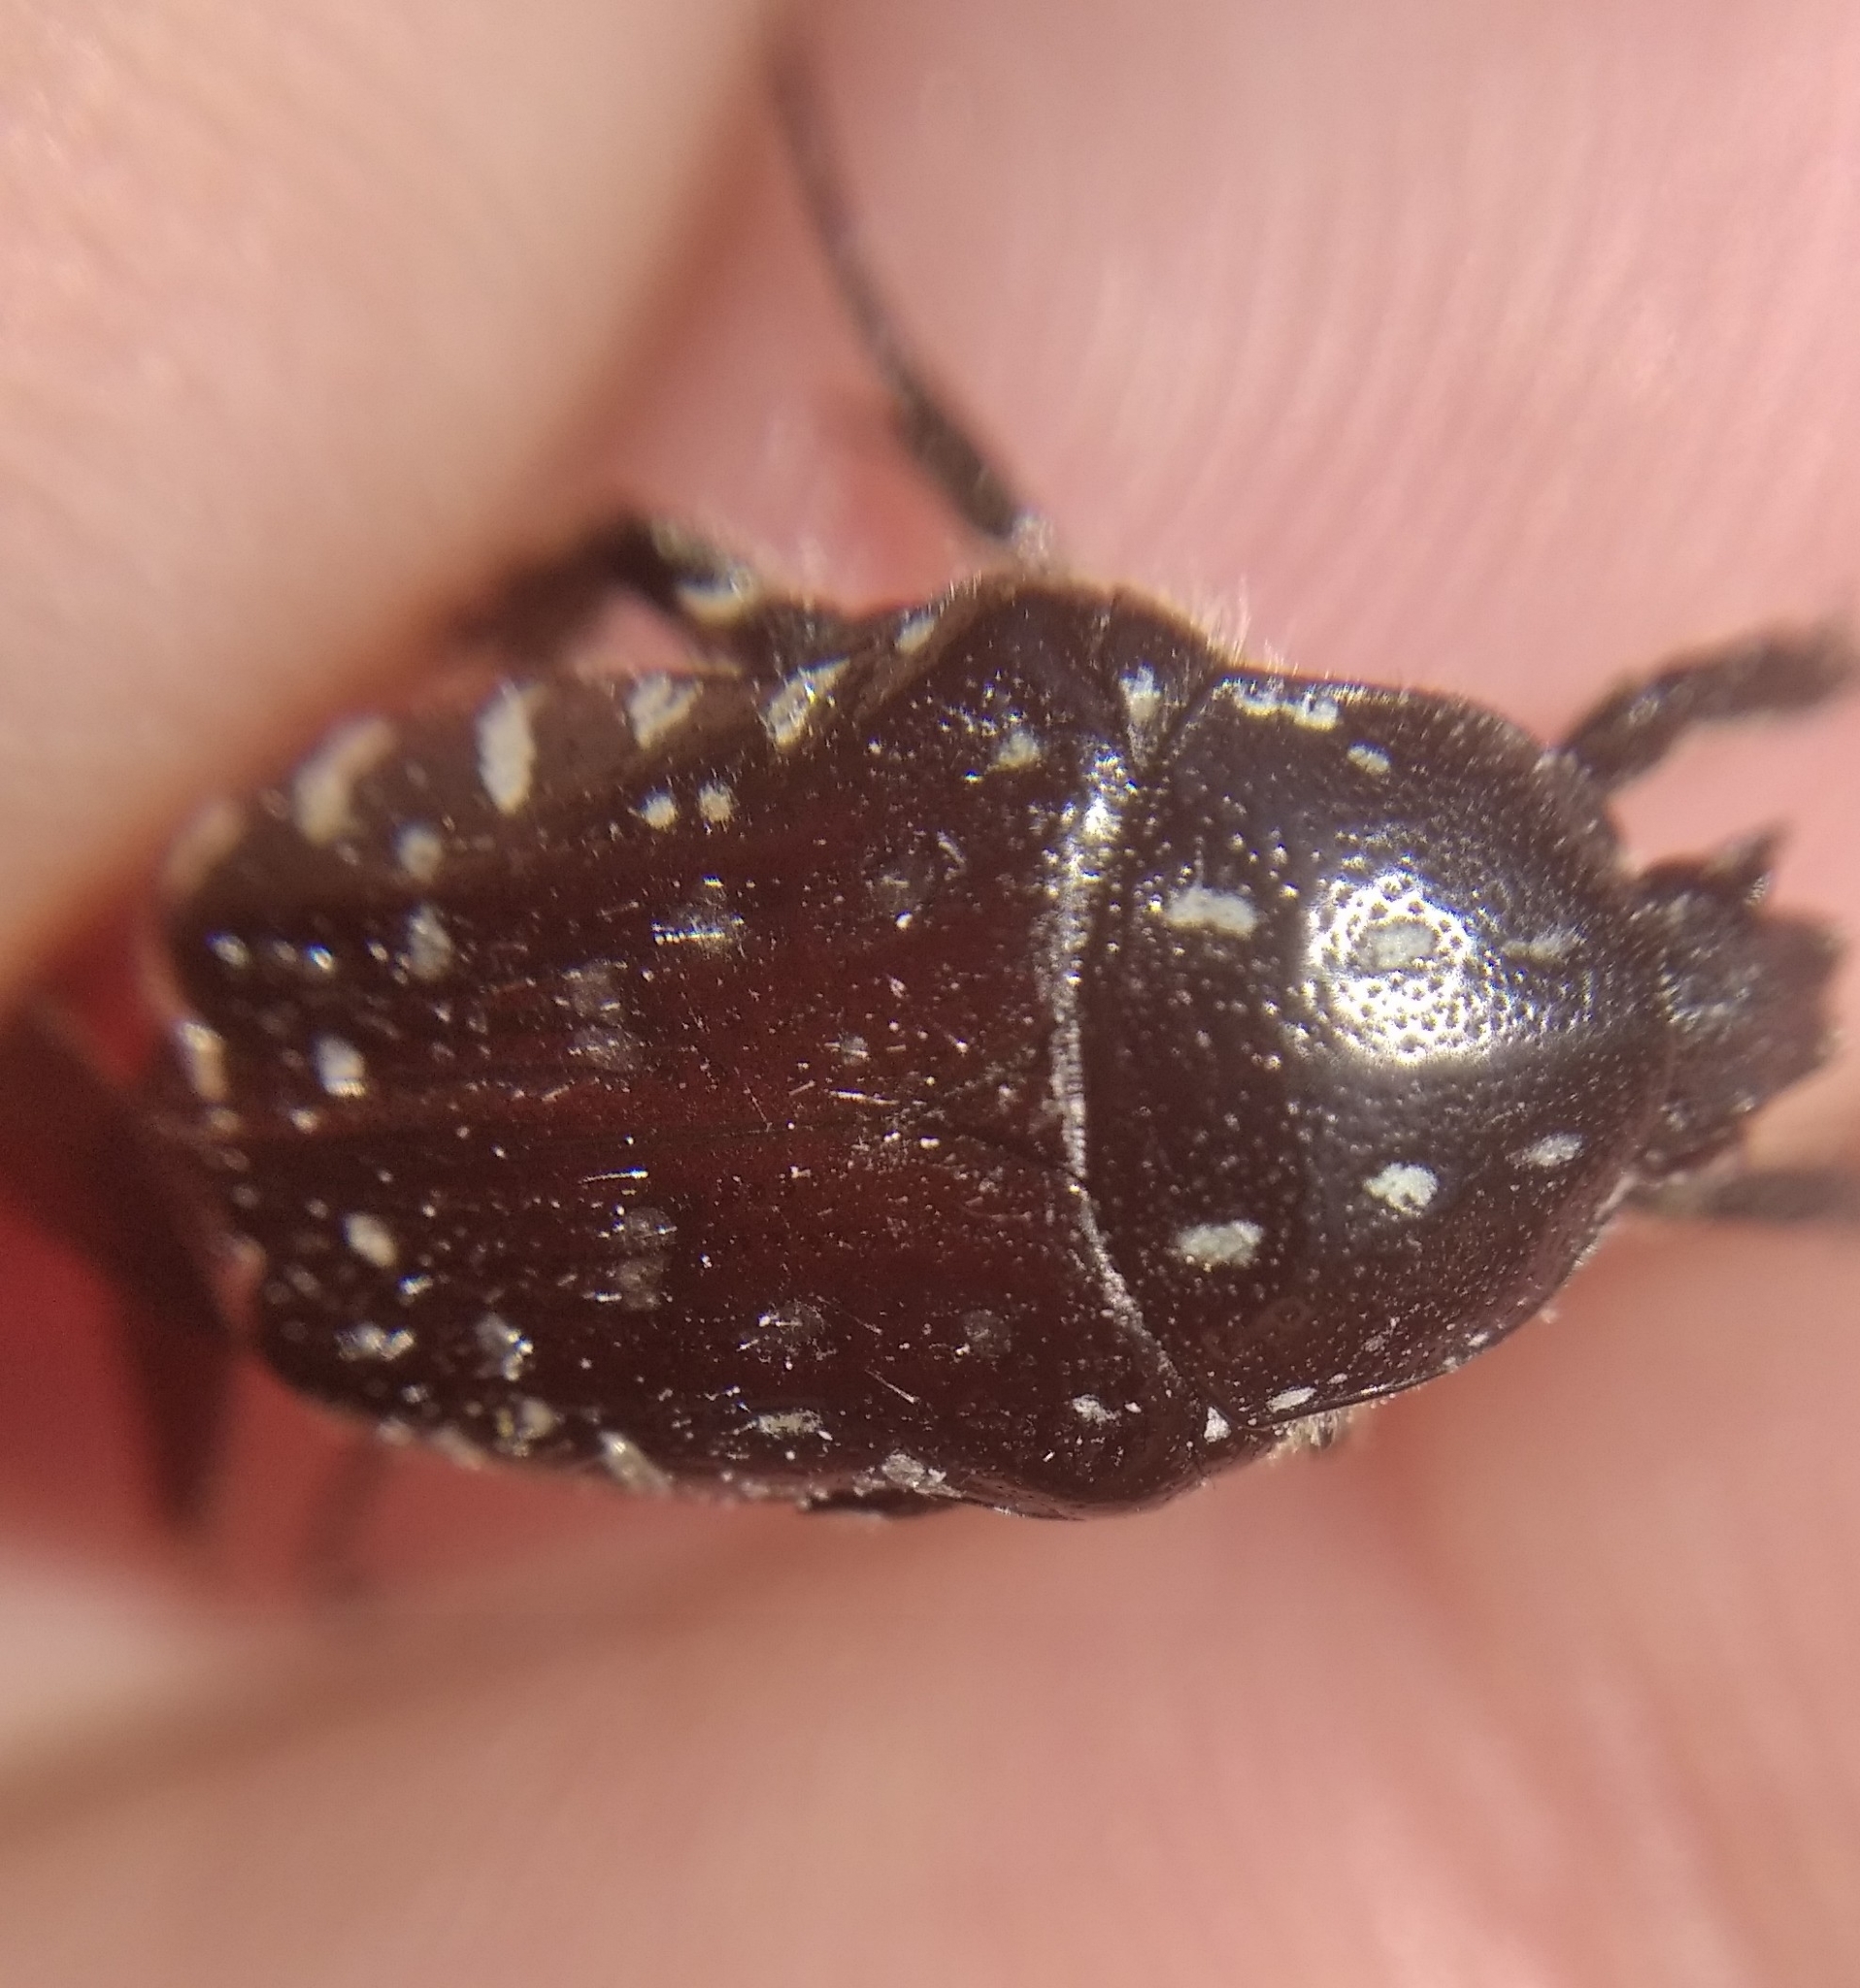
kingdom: Animalia
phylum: Arthropoda
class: Insecta
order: Coleoptera
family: Scarabaeidae
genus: Oxythyrea
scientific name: Oxythyrea funesta
